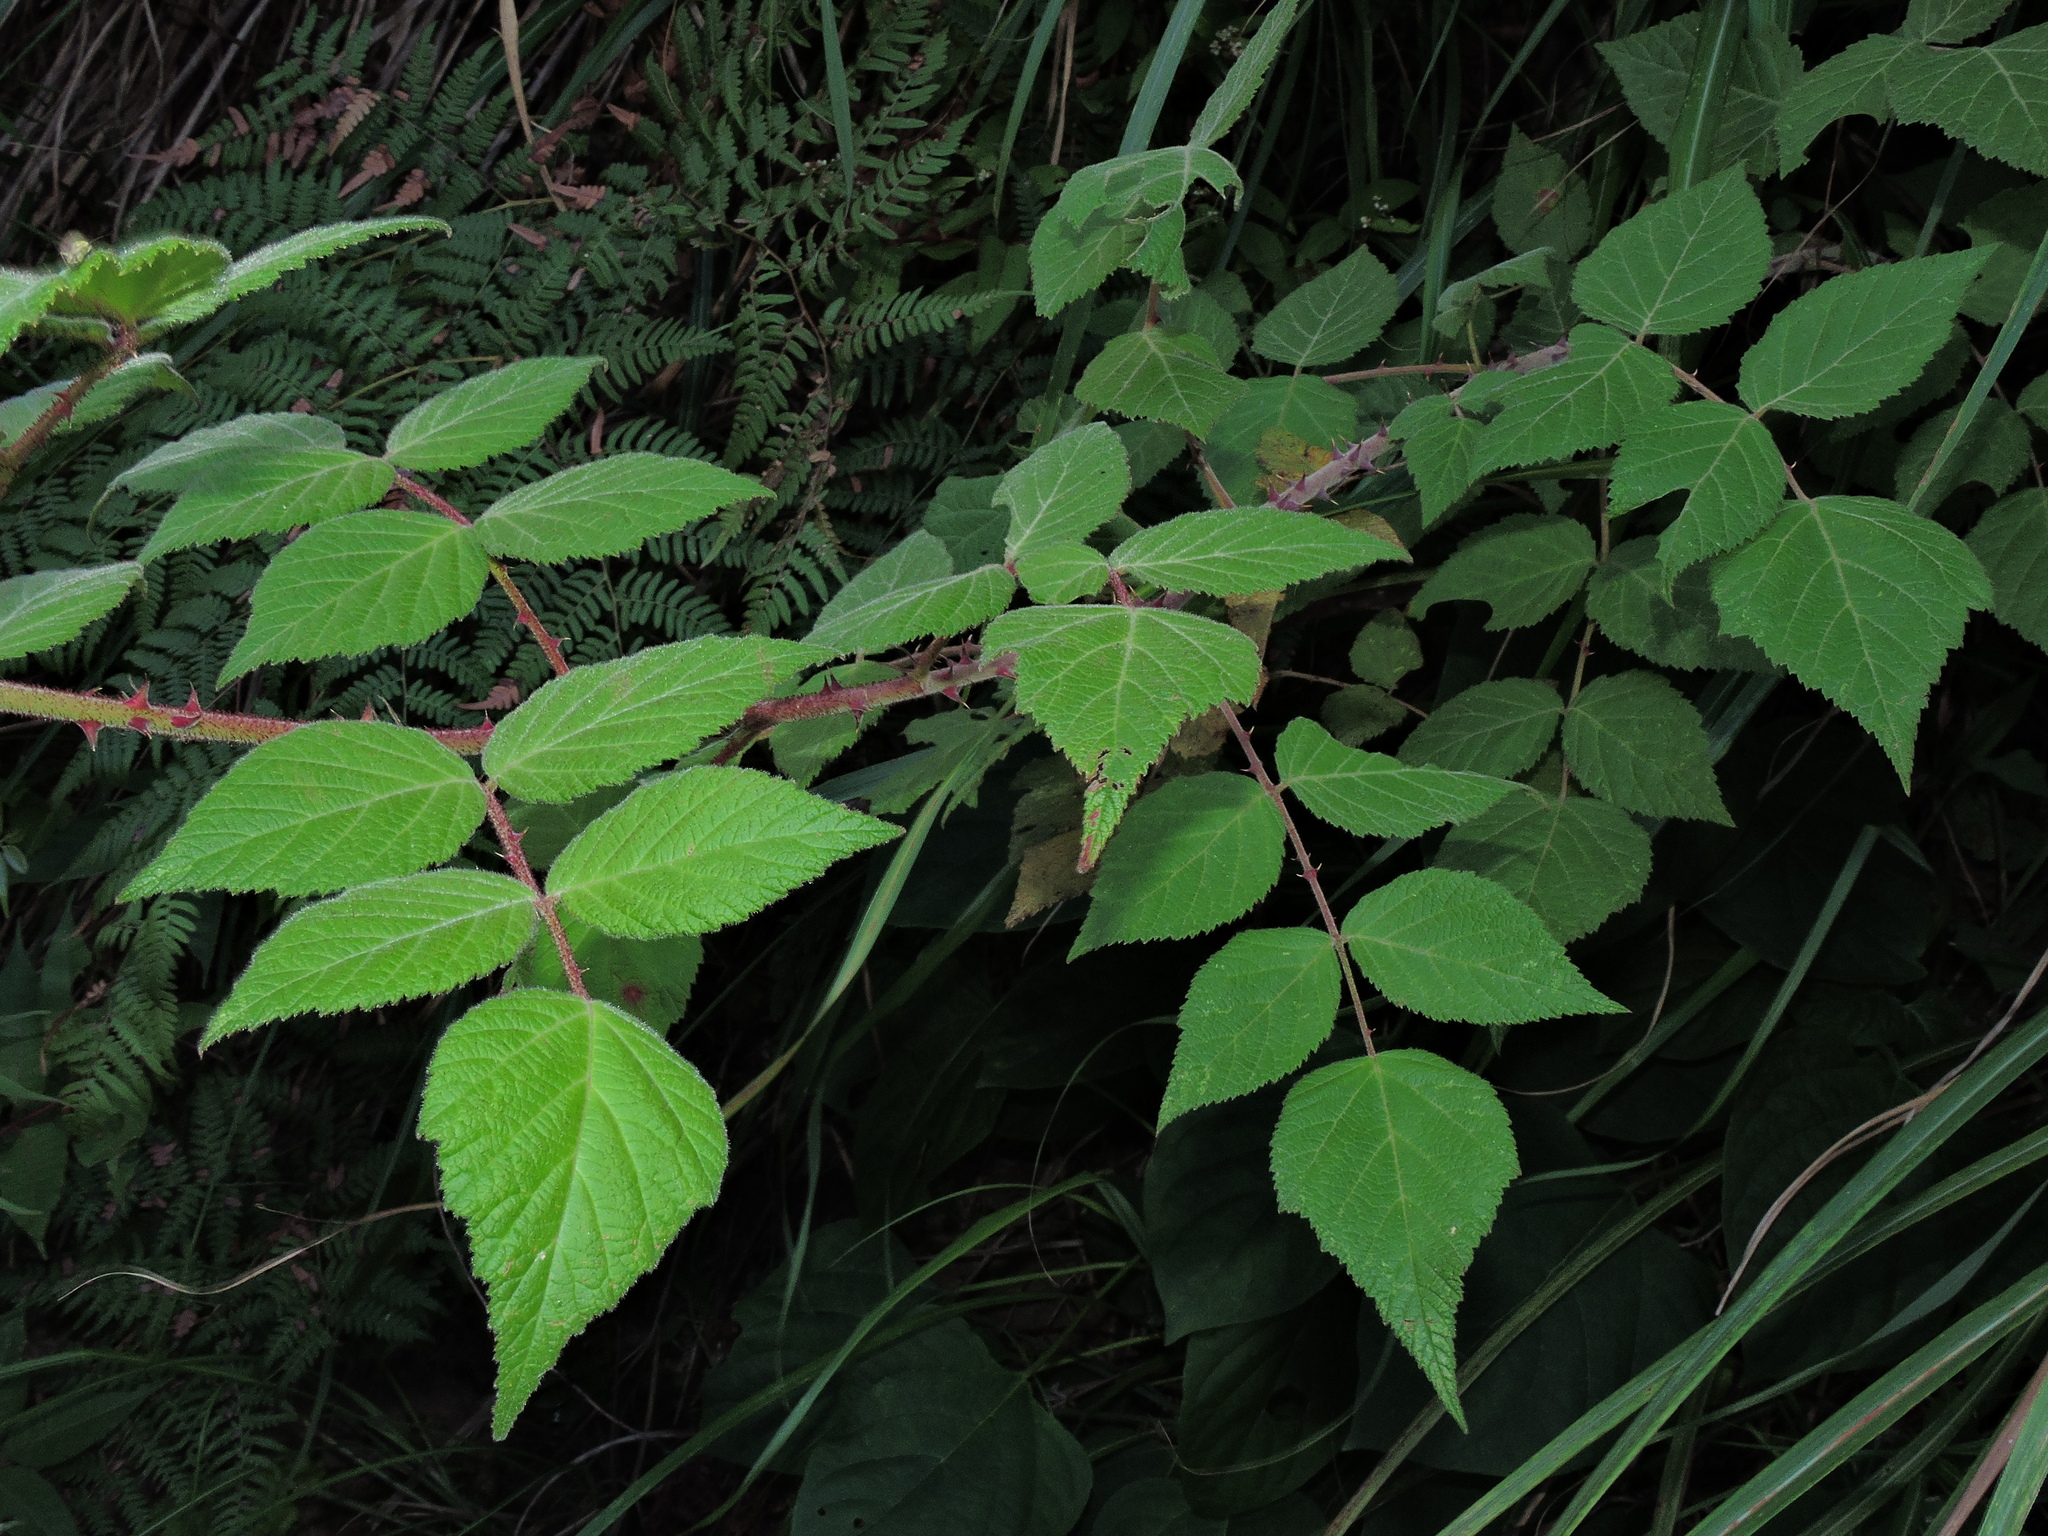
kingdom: Plantae
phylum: Tracheophyta
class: Magnoliopsida
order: Rosales
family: Rosaceae
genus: Rubus
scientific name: Rubus parviaraliifolius
